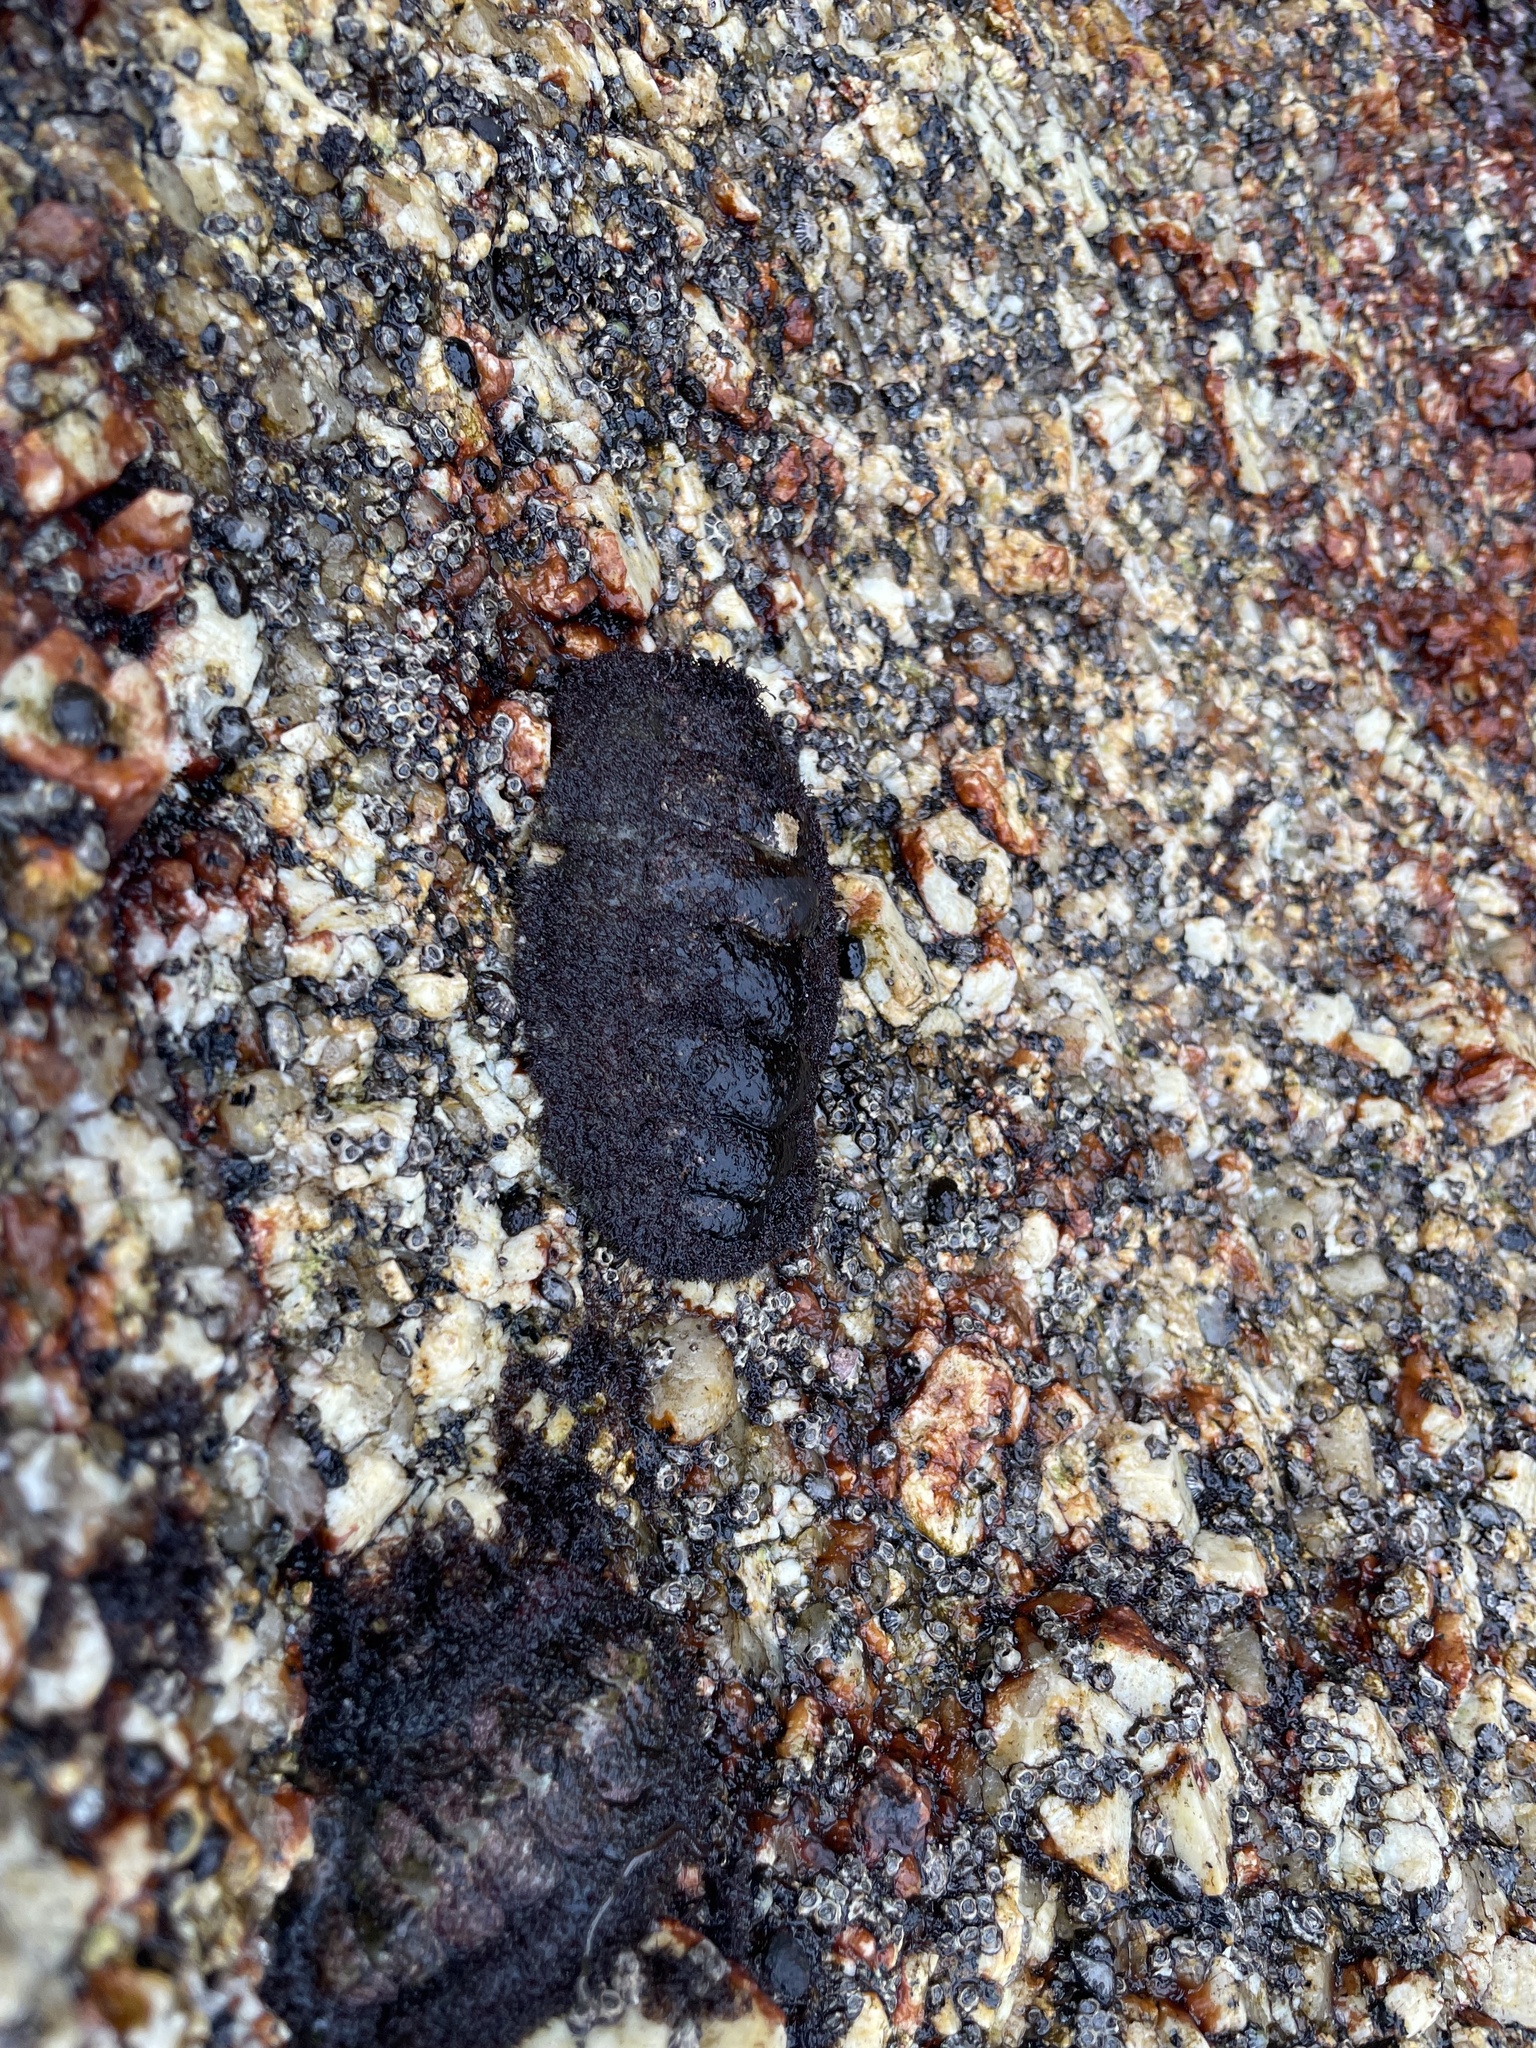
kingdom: Animalia
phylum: Mollusca
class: Polyplacophora
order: Chitonida
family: Mopaliidae
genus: Plaxiphora
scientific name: Plaxiphora albida
